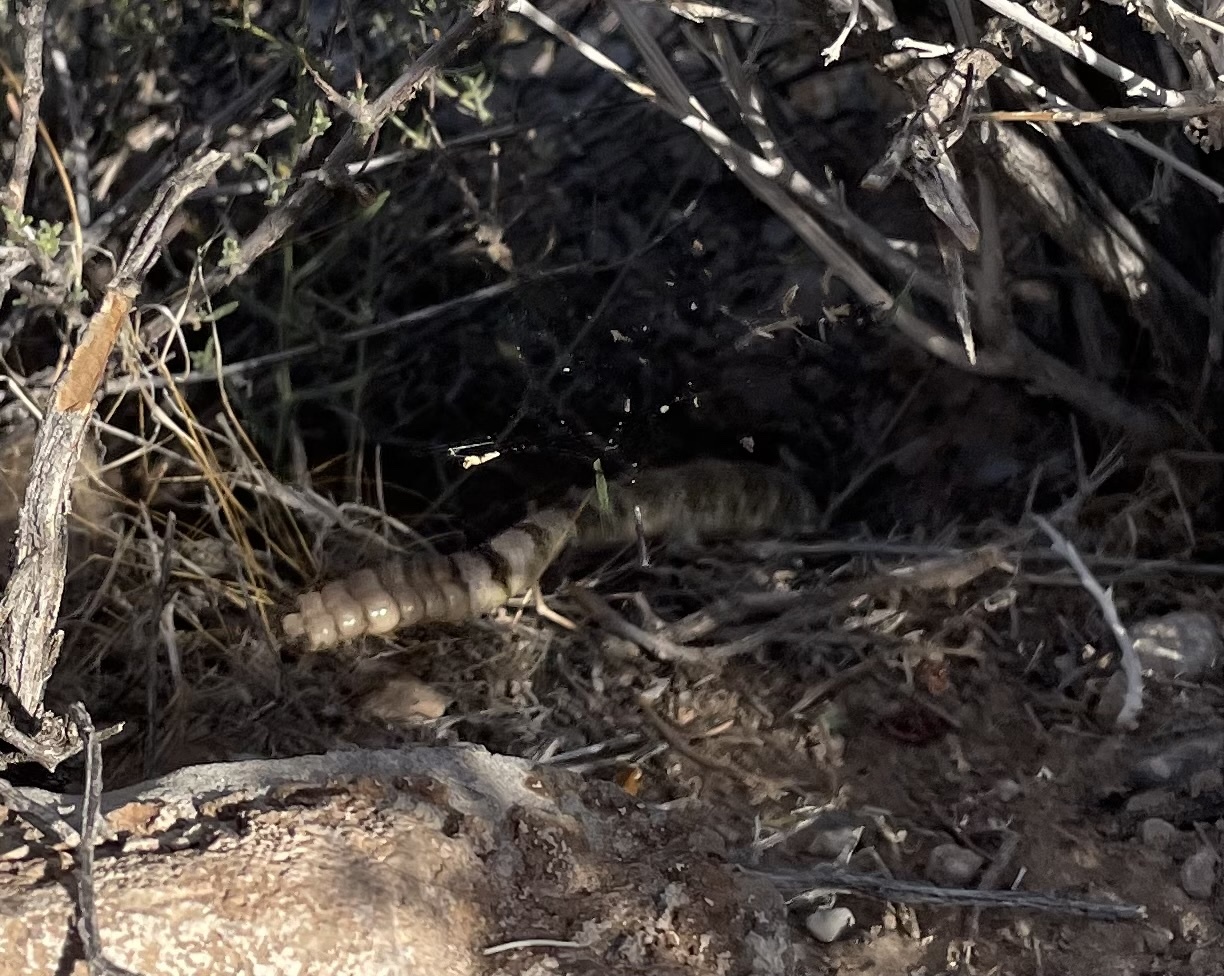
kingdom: Animalia
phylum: Chordata
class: Squamata
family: Viperidae
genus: Crotalus
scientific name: Crotalus scutulatus
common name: Scutulatus
